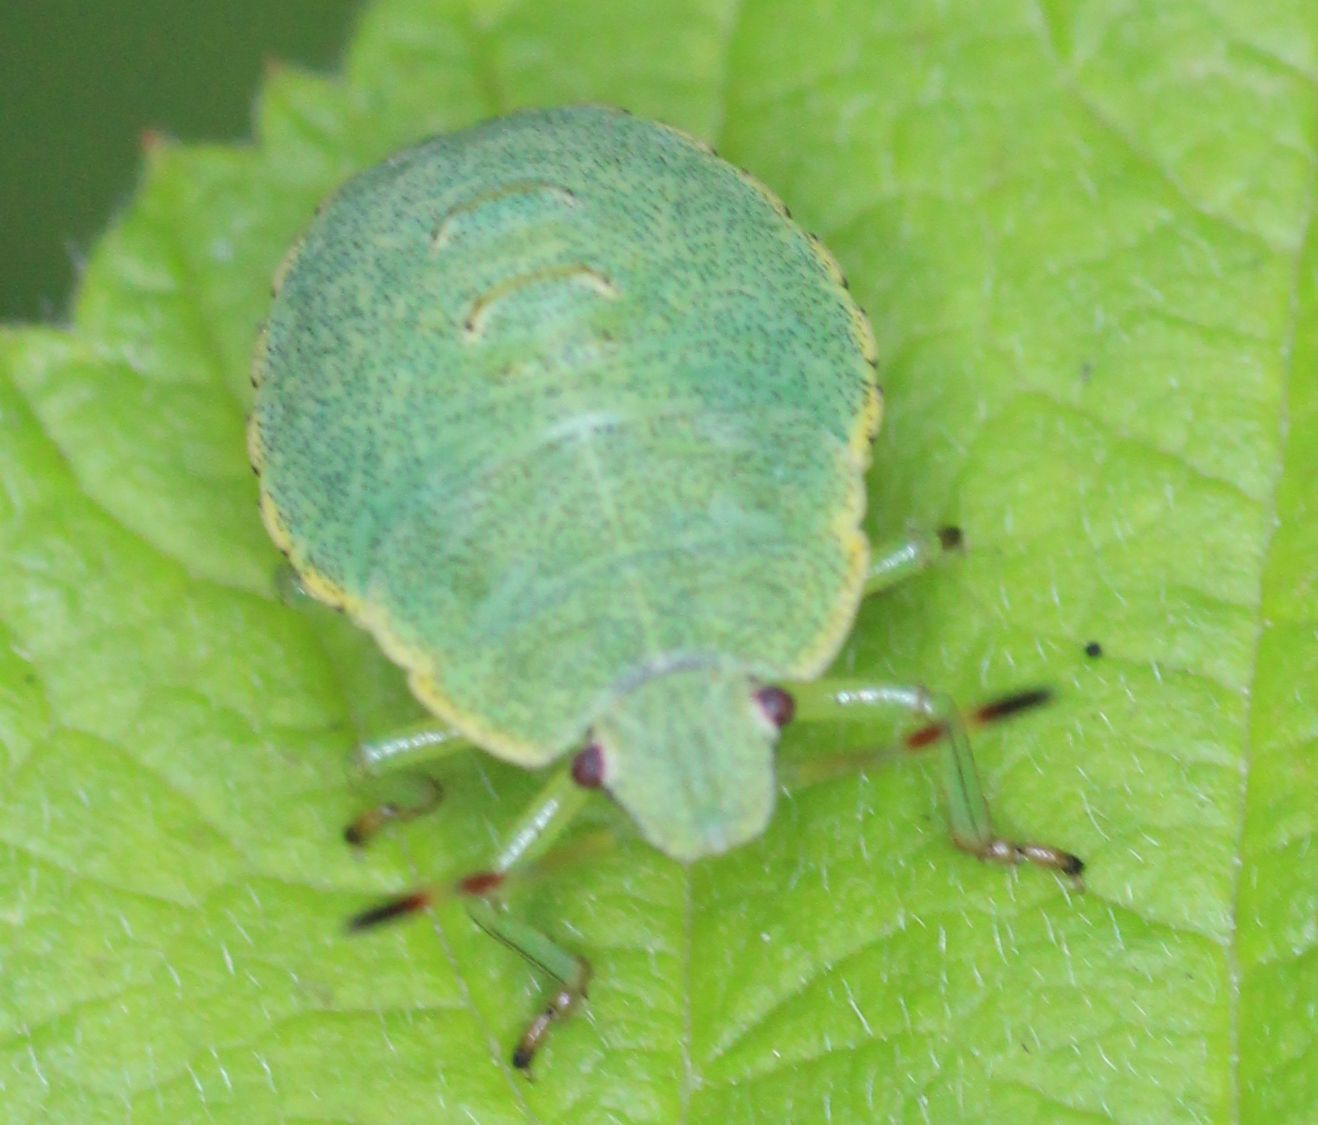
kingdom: Animalia
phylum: Arthropoda
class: Insecta
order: Hemiptera
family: Pentatomidae
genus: Palomena
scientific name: Palomena prasina
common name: Green shieldbug
